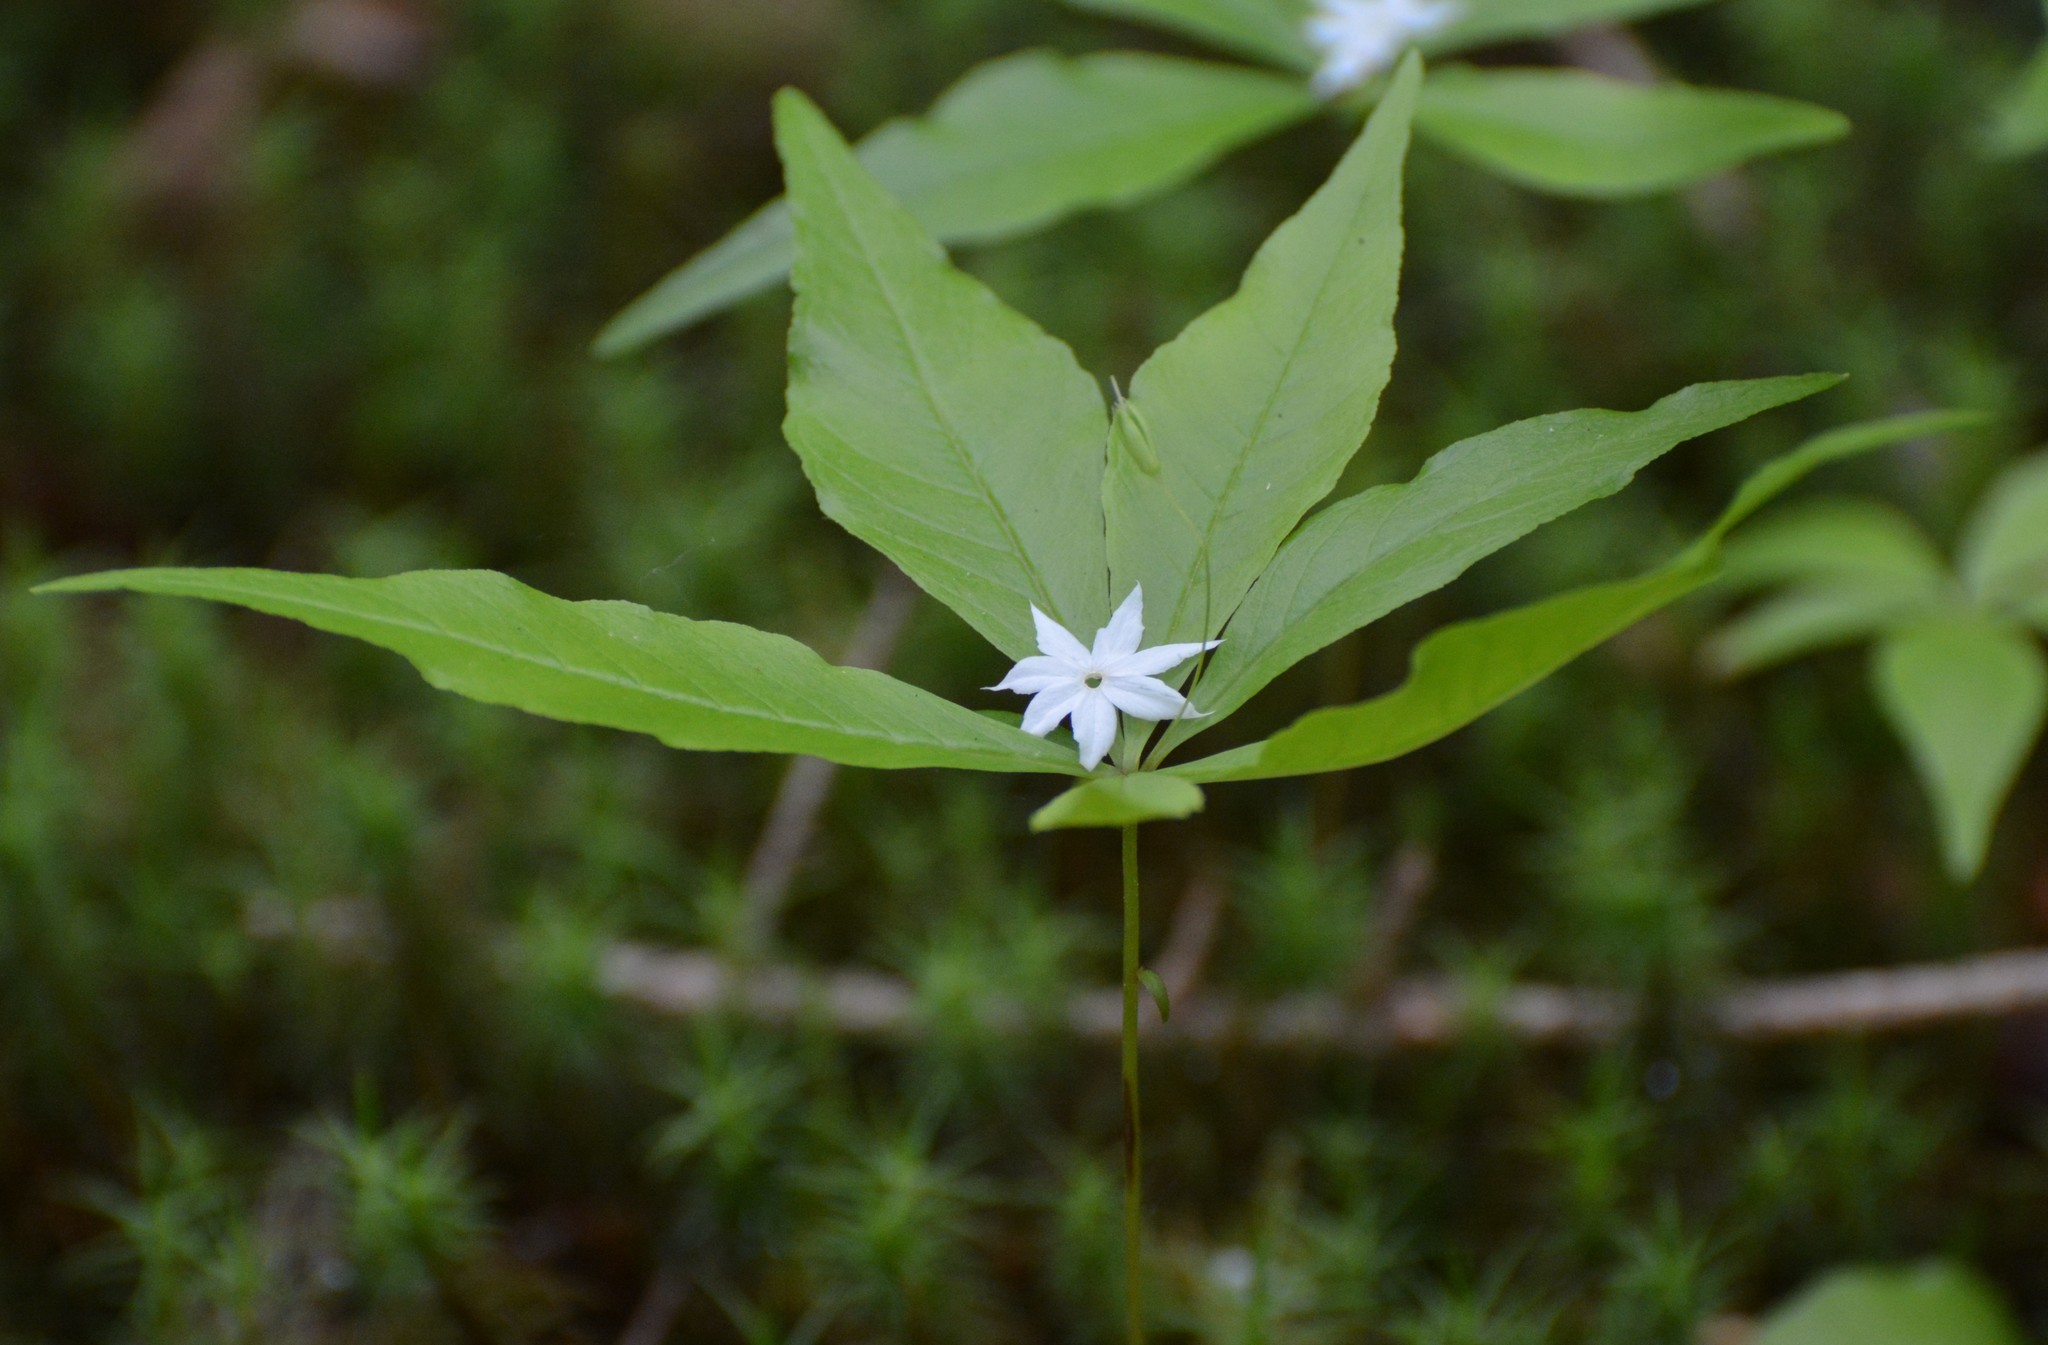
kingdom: Plantae
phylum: Tracheophyta
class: Magnoliopsida
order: Ericales
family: Primulaceae
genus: Lysimachia
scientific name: Lysimachia borealis
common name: American starflower
